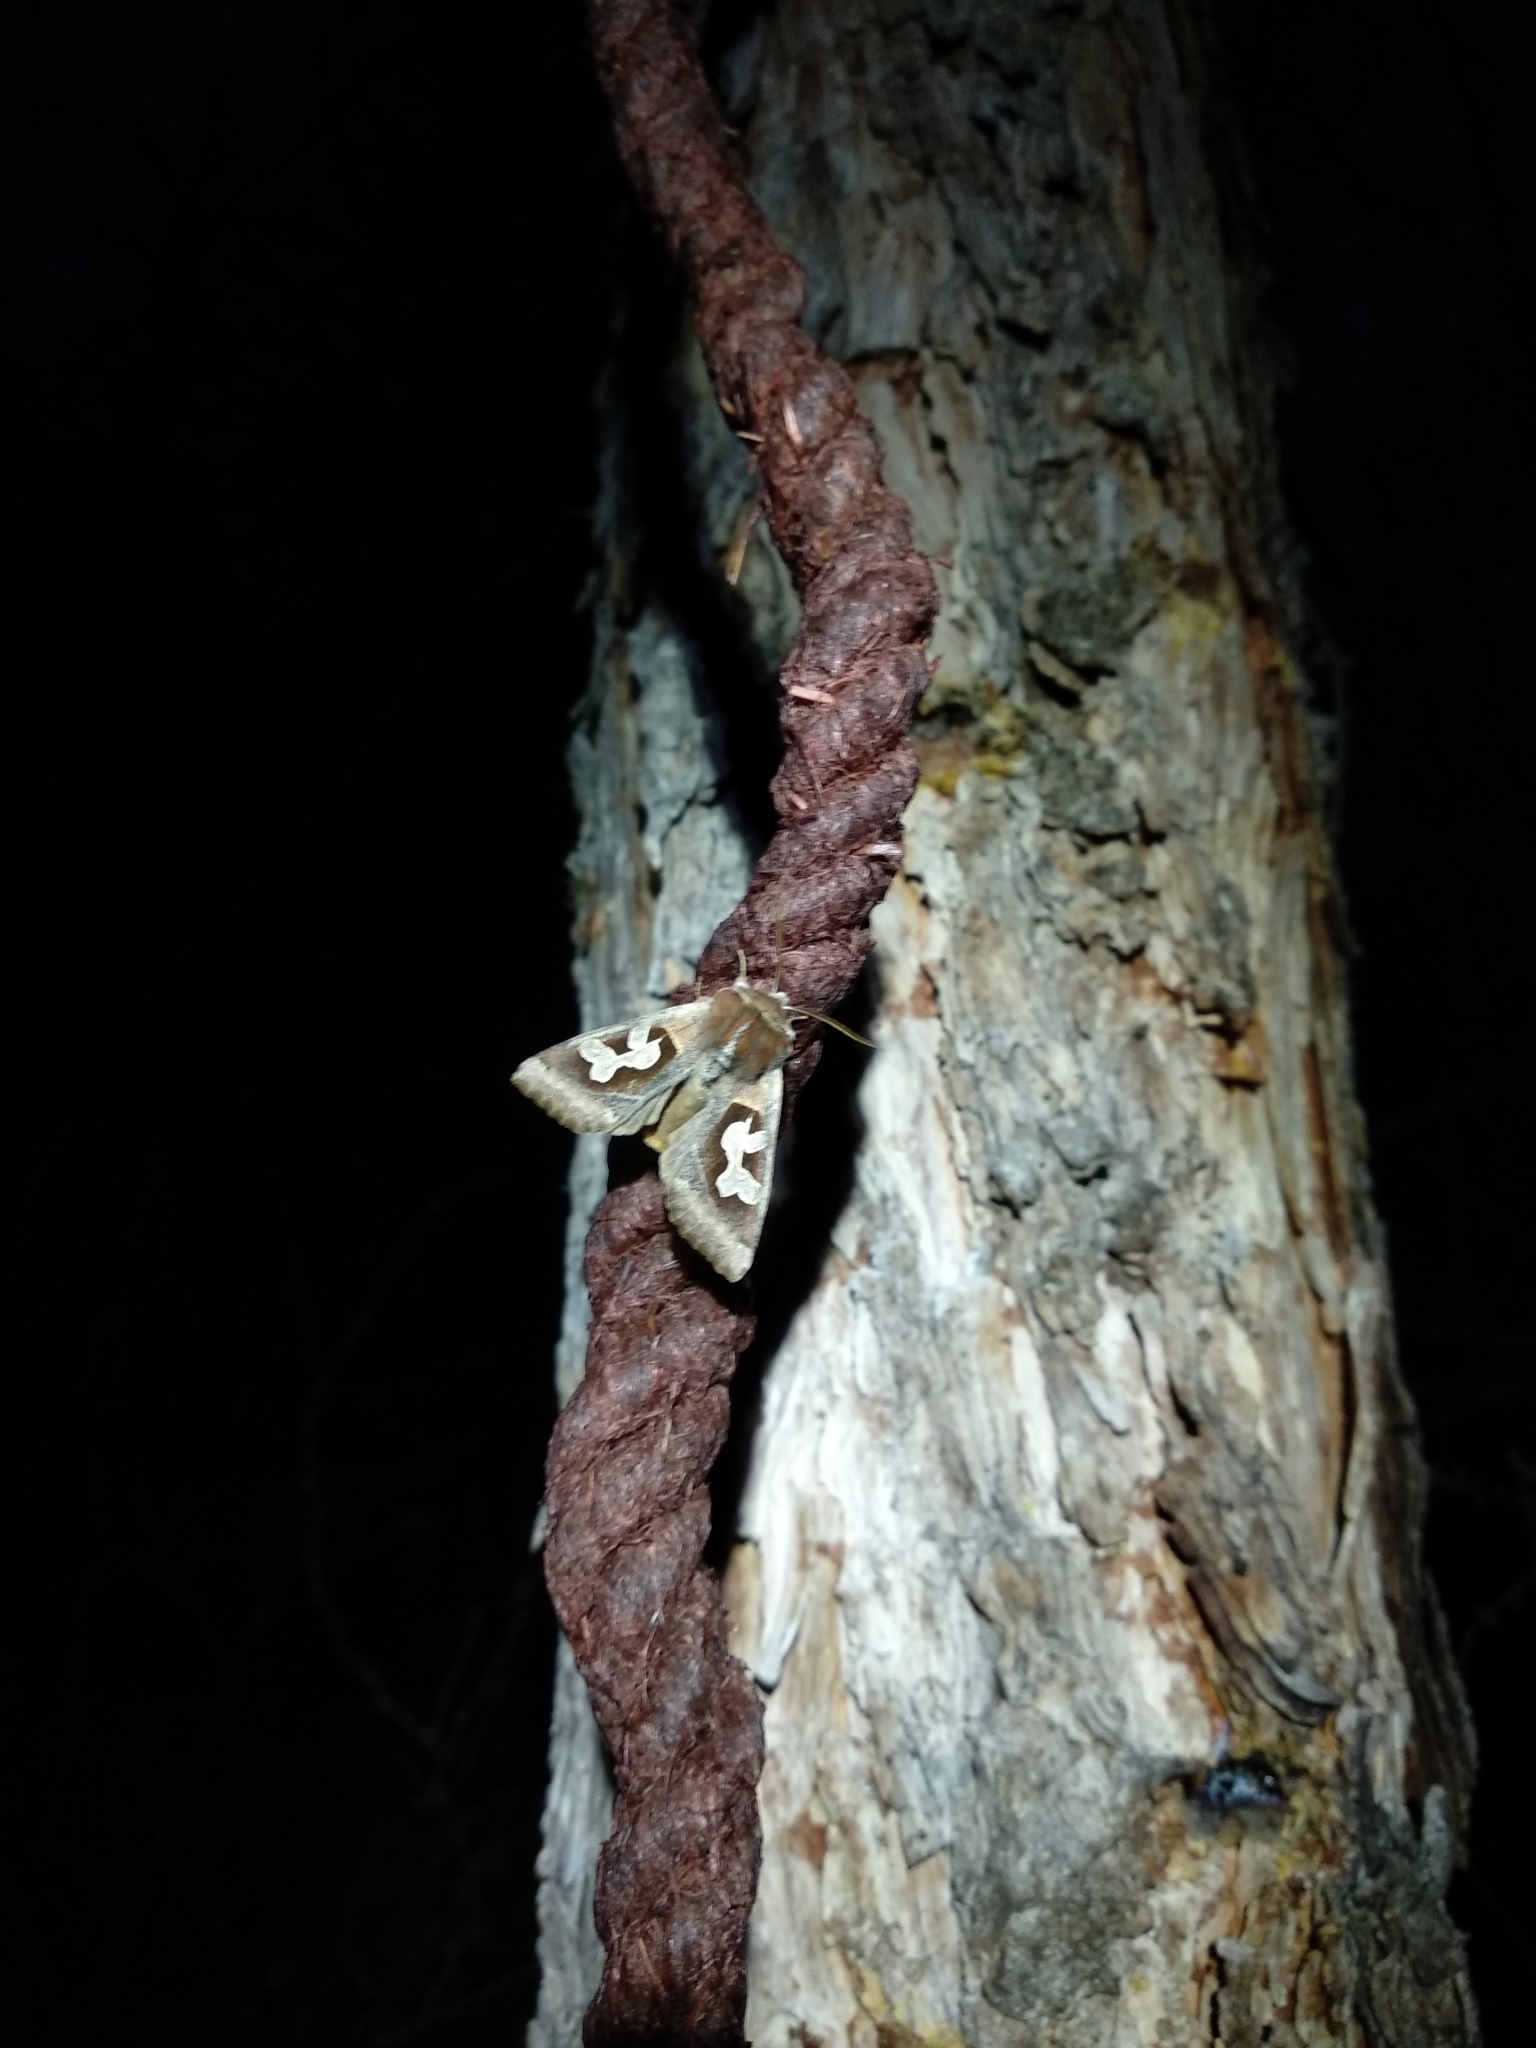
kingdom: Animalia
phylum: Arthropoda
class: Insecta
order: Lepidoptera
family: Noctuidae
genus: Perigrapha
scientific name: Perigrapha circumducta
